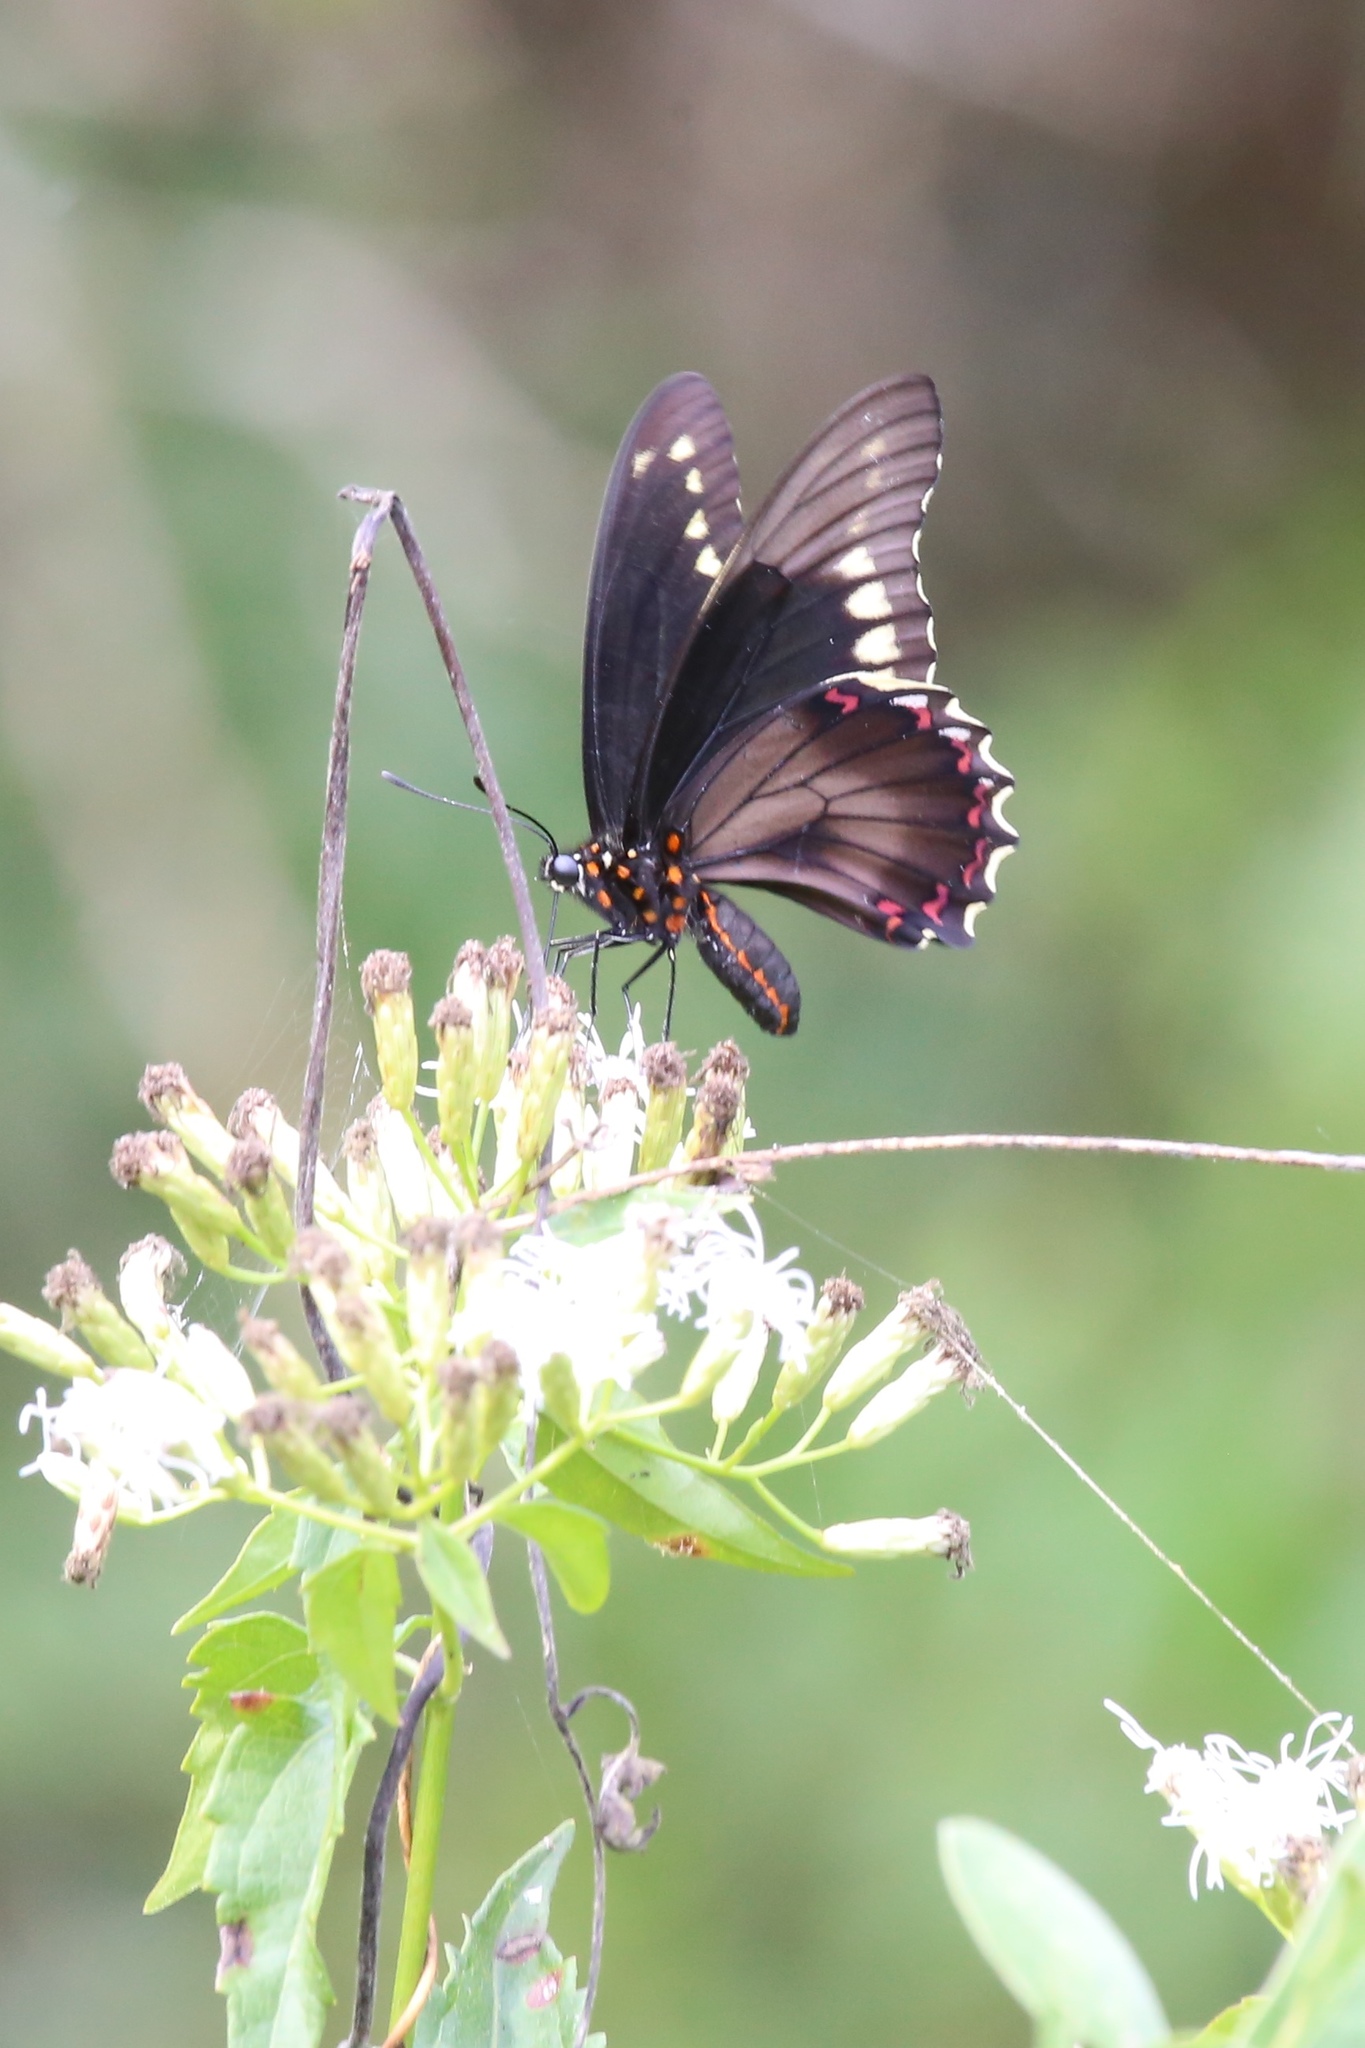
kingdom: Animalia
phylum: Arthropoda
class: Insecta
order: Lepidoptera
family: Papilionidae
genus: Battus
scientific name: Battus polydamas
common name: Polydamas swallowtail
